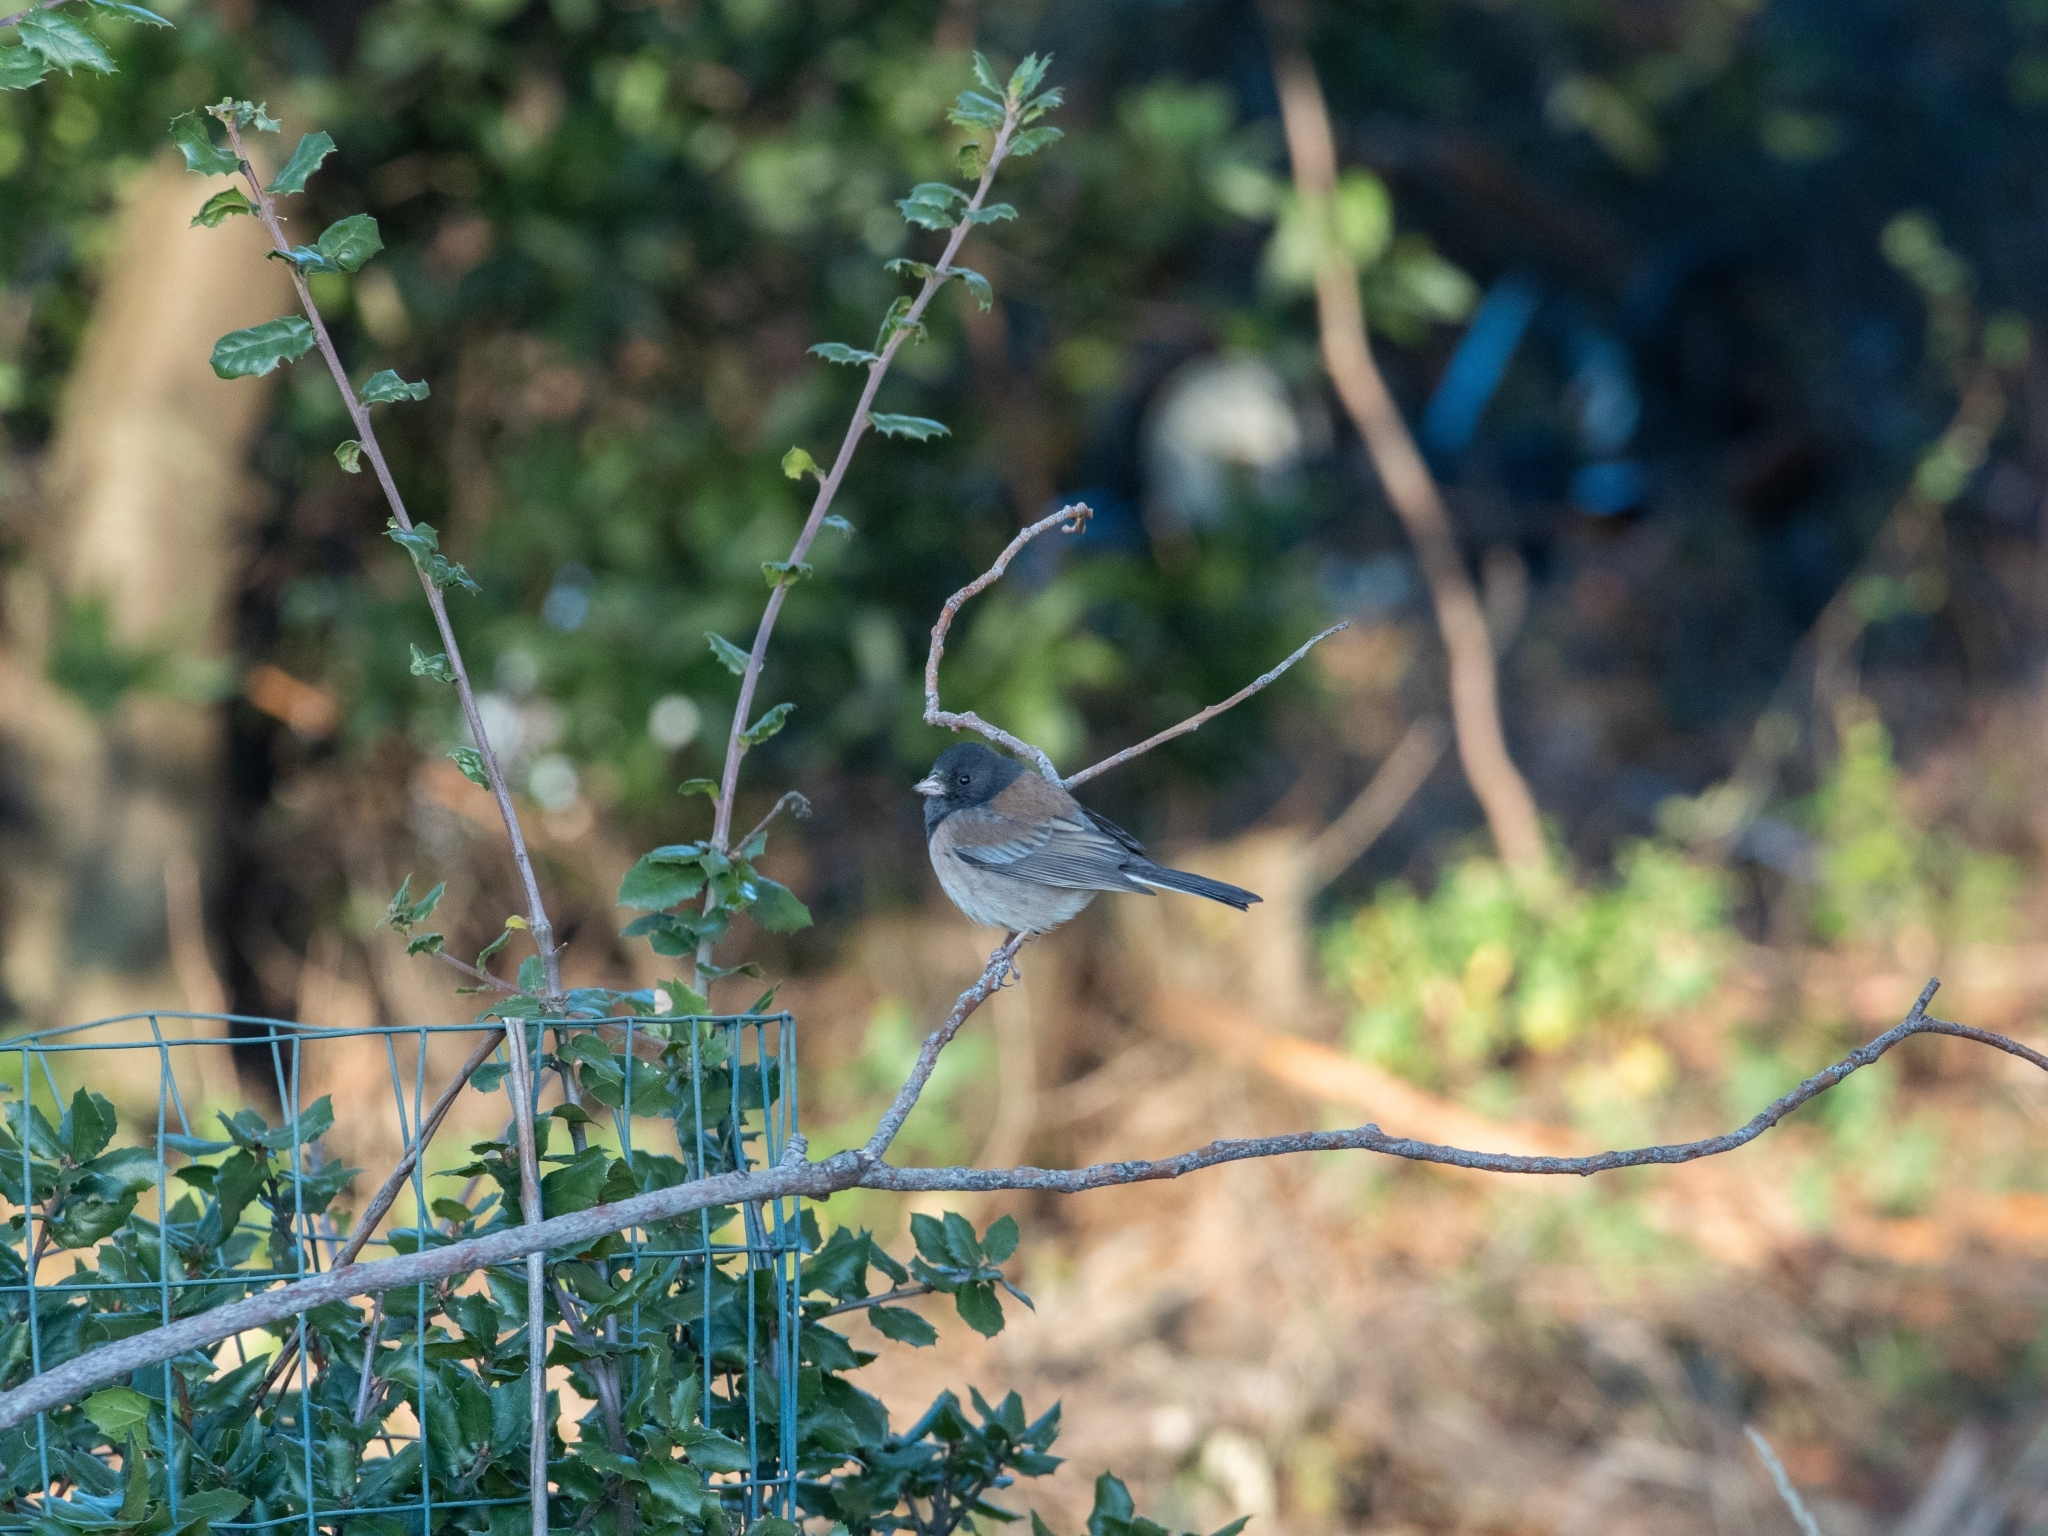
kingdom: Animalia
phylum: Chordata
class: Aves
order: Passeriformes
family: Passerellidae
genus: Junco
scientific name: Junco hyemalis
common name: Dark-eyed junco
